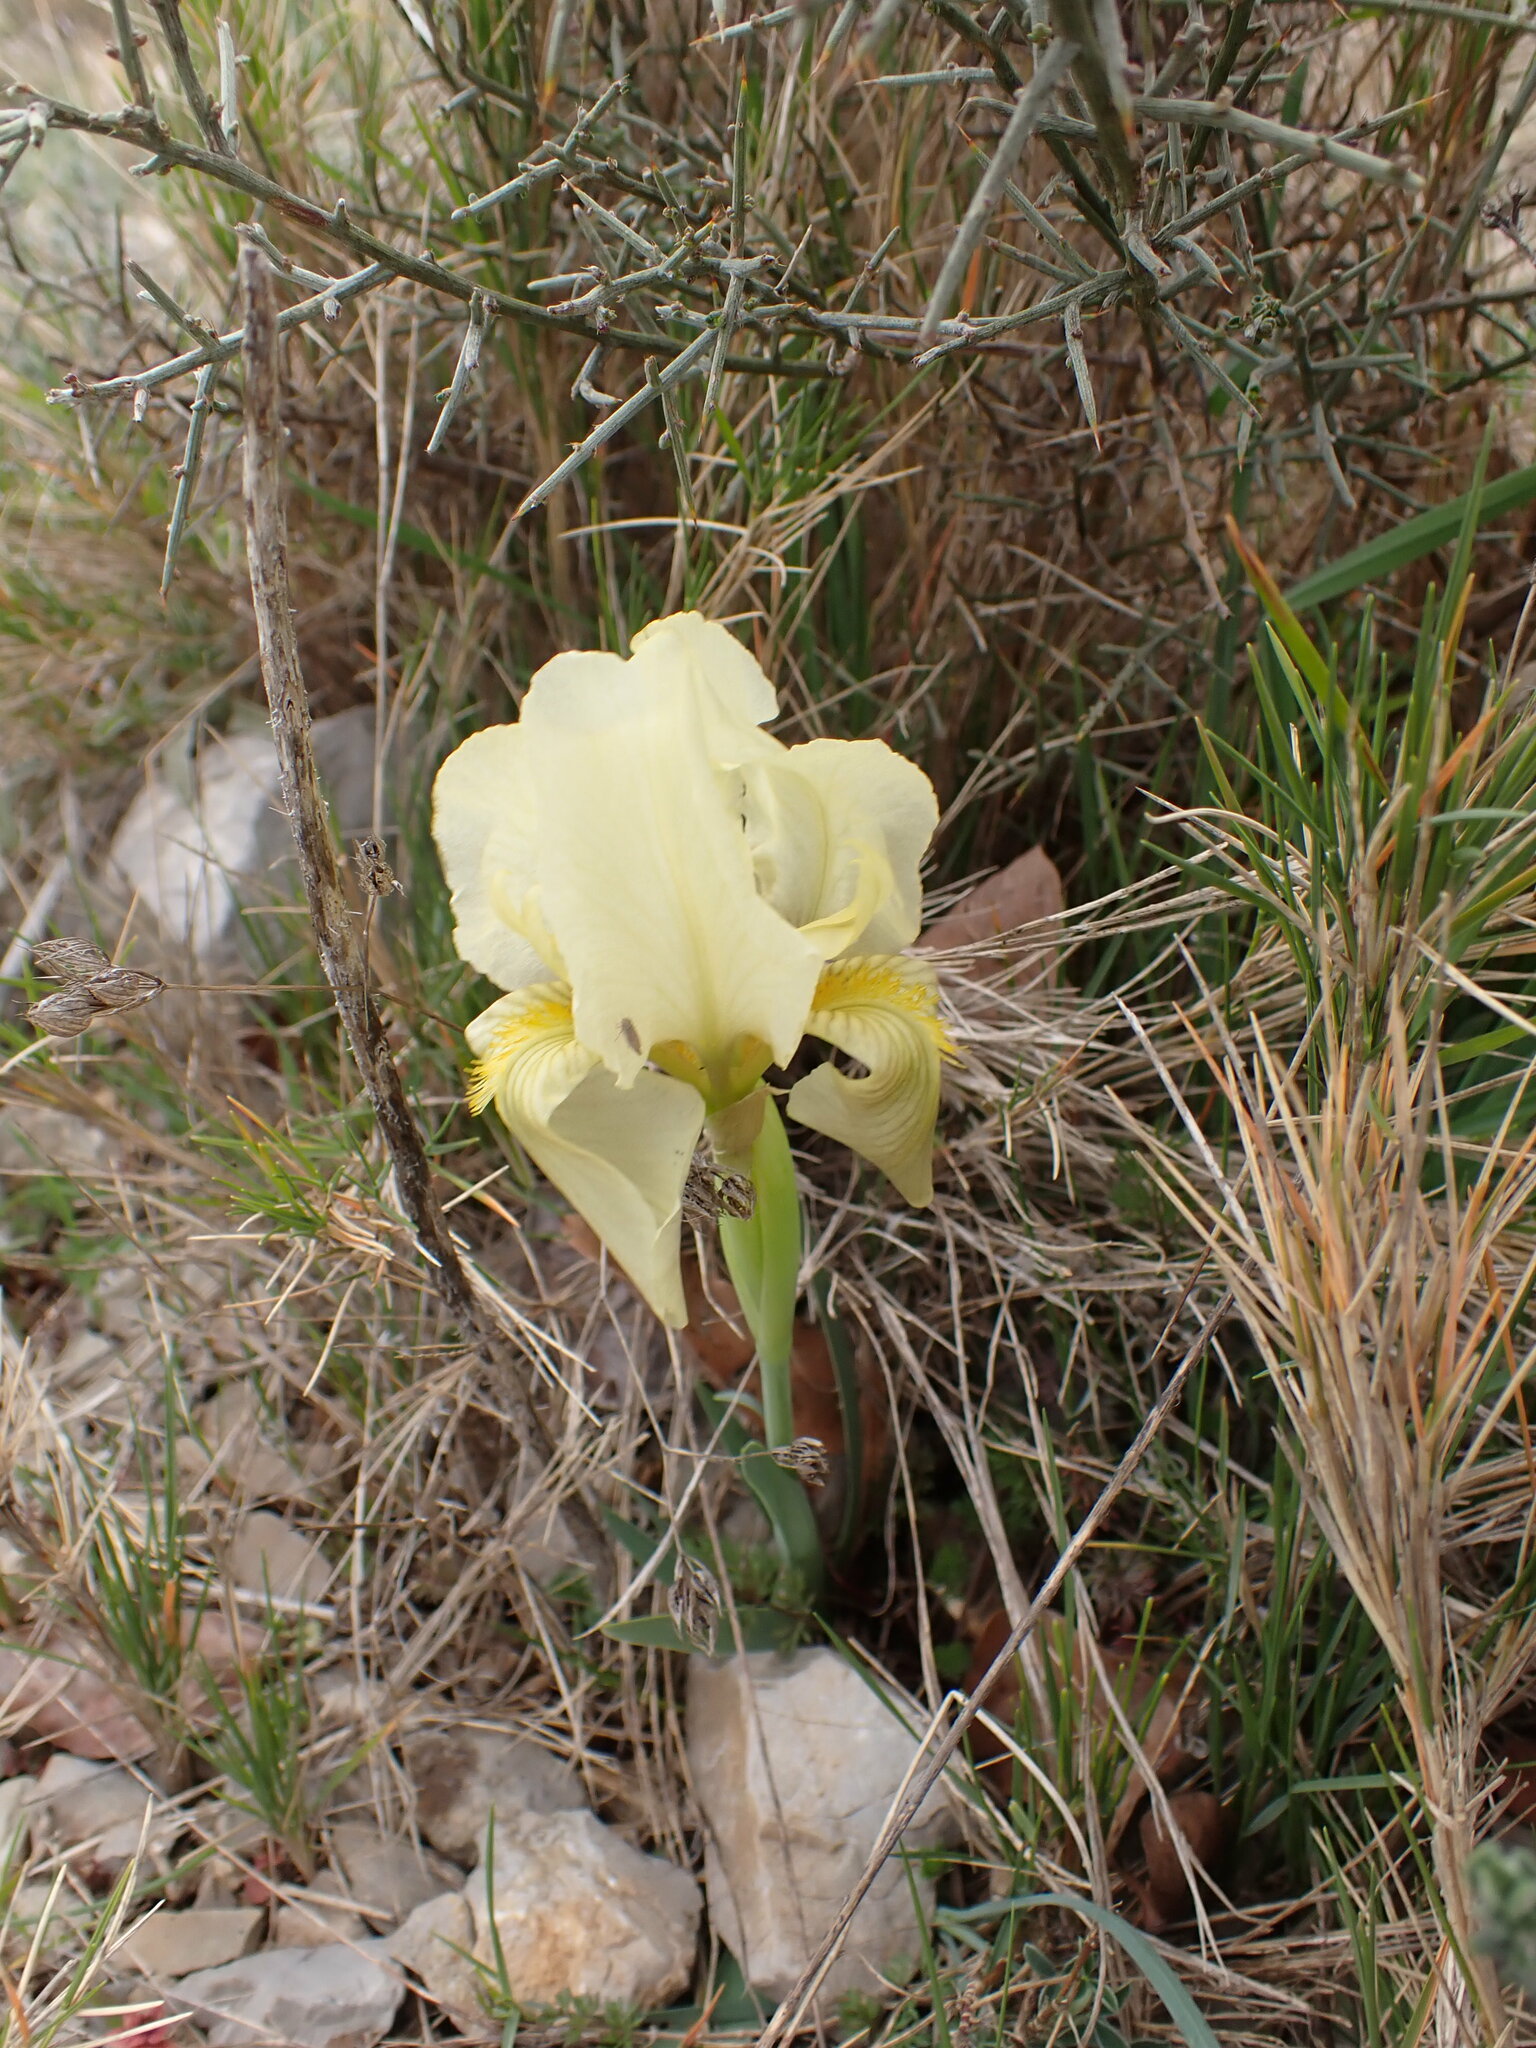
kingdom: Plantae
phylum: Tracheophyta
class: Liliopsida
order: Asparagales
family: Iridaceae
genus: Iris
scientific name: Iris lutescens
